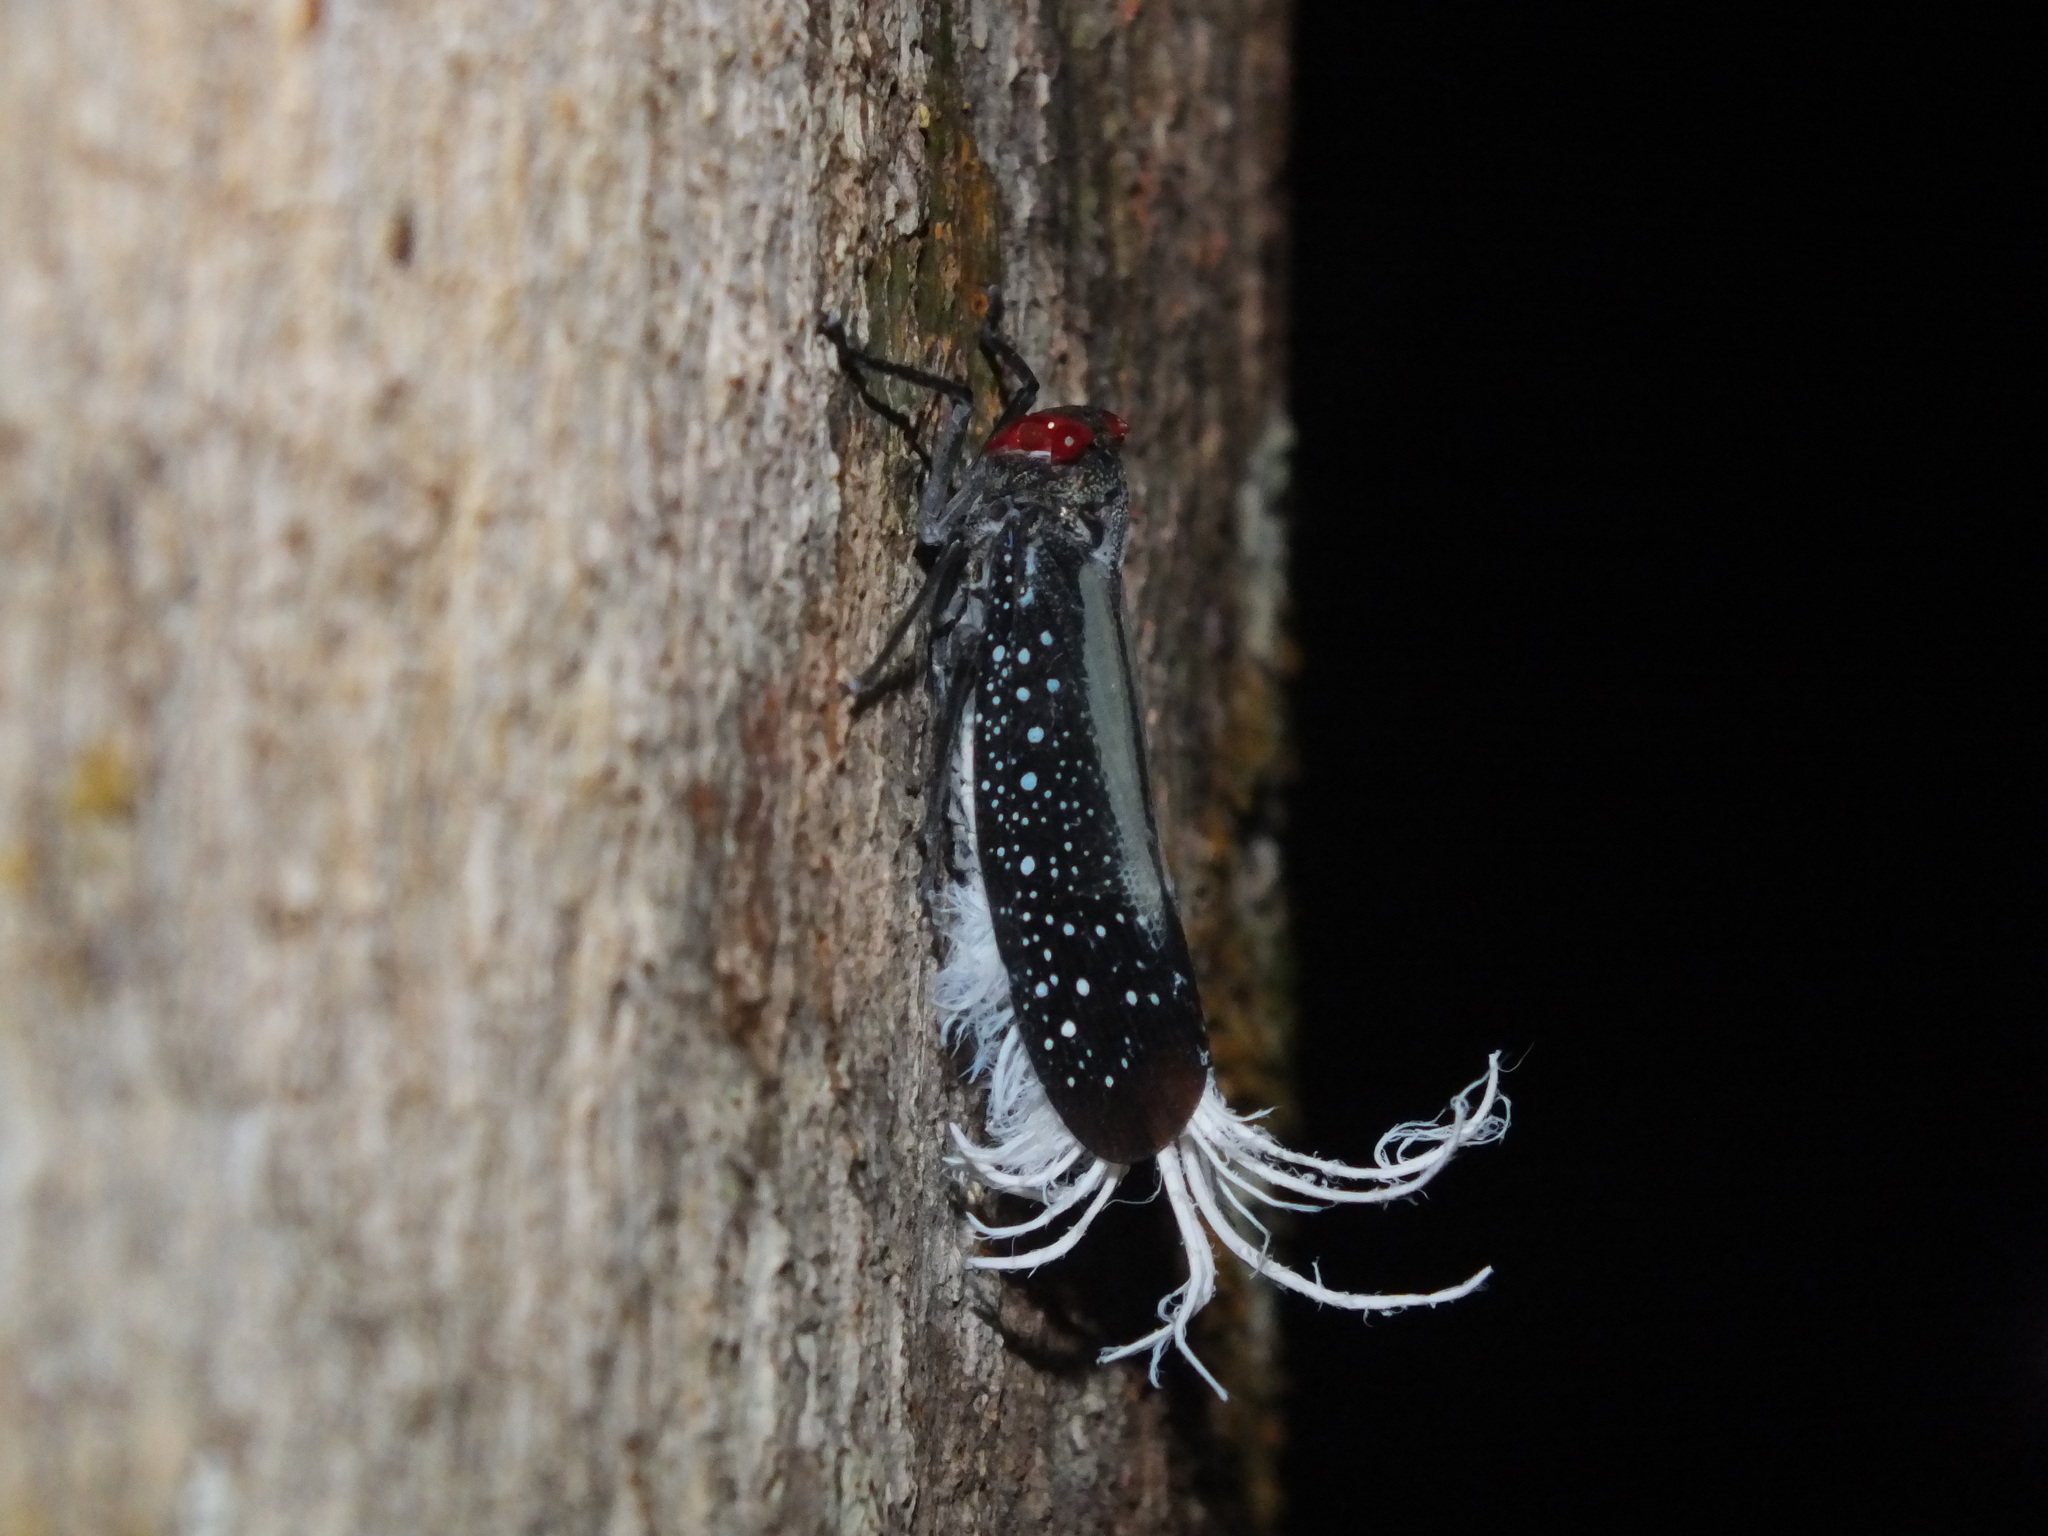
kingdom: Animalia
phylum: Arthropoda
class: Insecta
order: Hemiptera
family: Fulgoridae
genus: Lystra
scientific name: Lystra lanata
